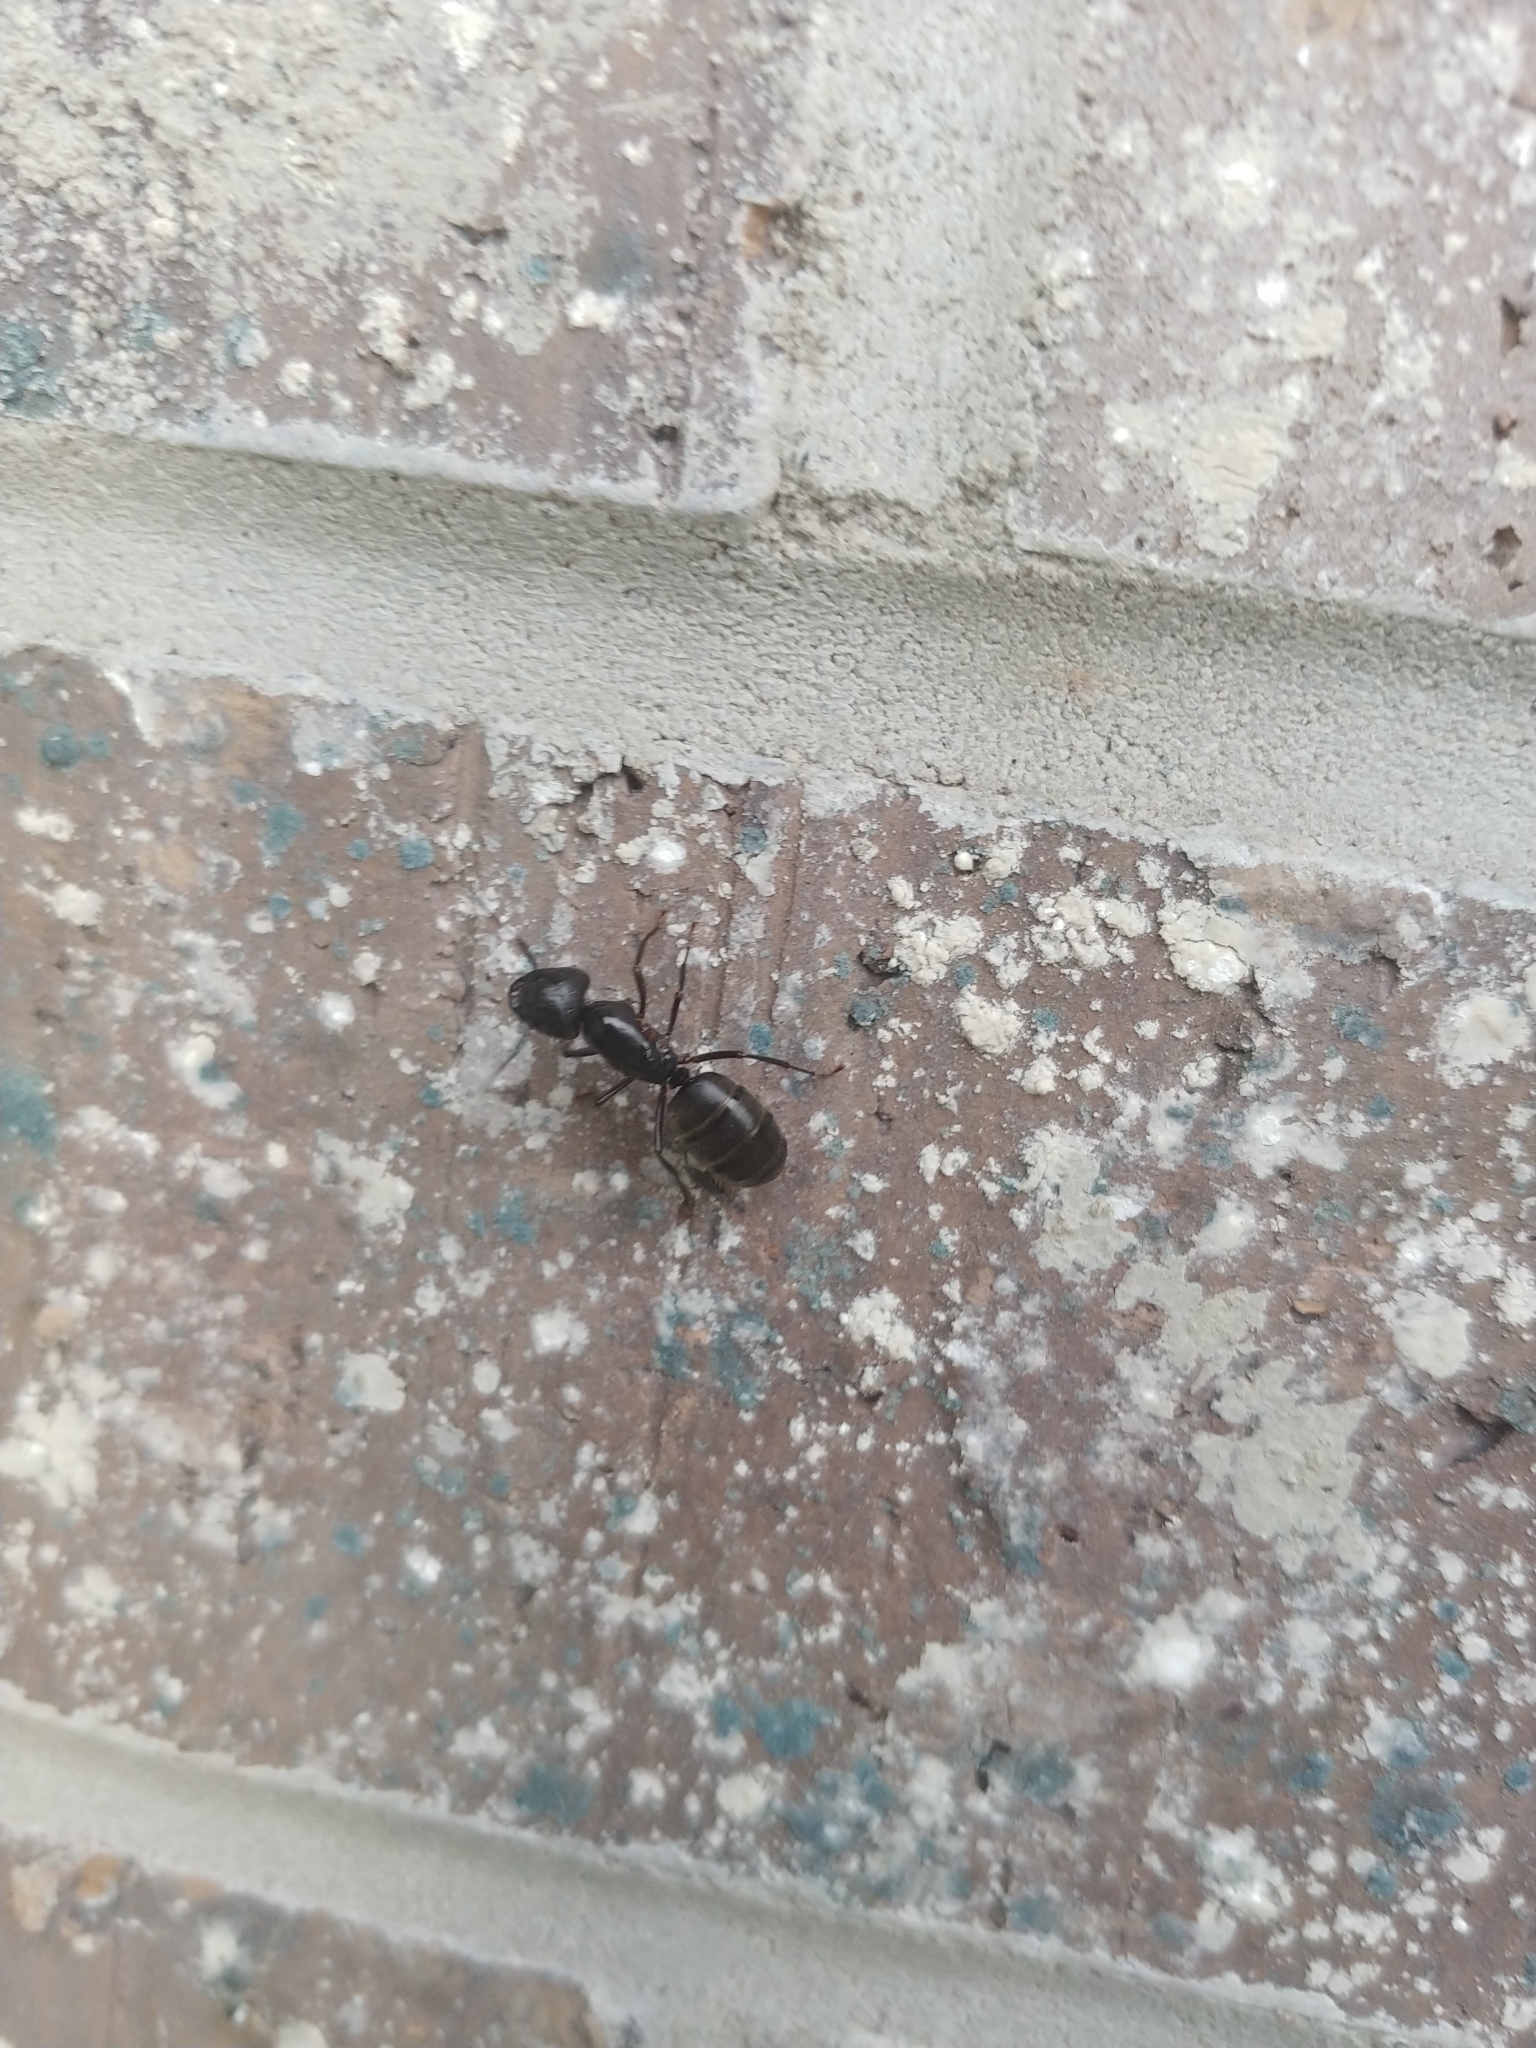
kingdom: Animalia
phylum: Arthropoda
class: Insecta
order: Hymenoptera
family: Formicidae
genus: Camponotus
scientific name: Camponotus pennsylvanicus
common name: Black carpenter ant
